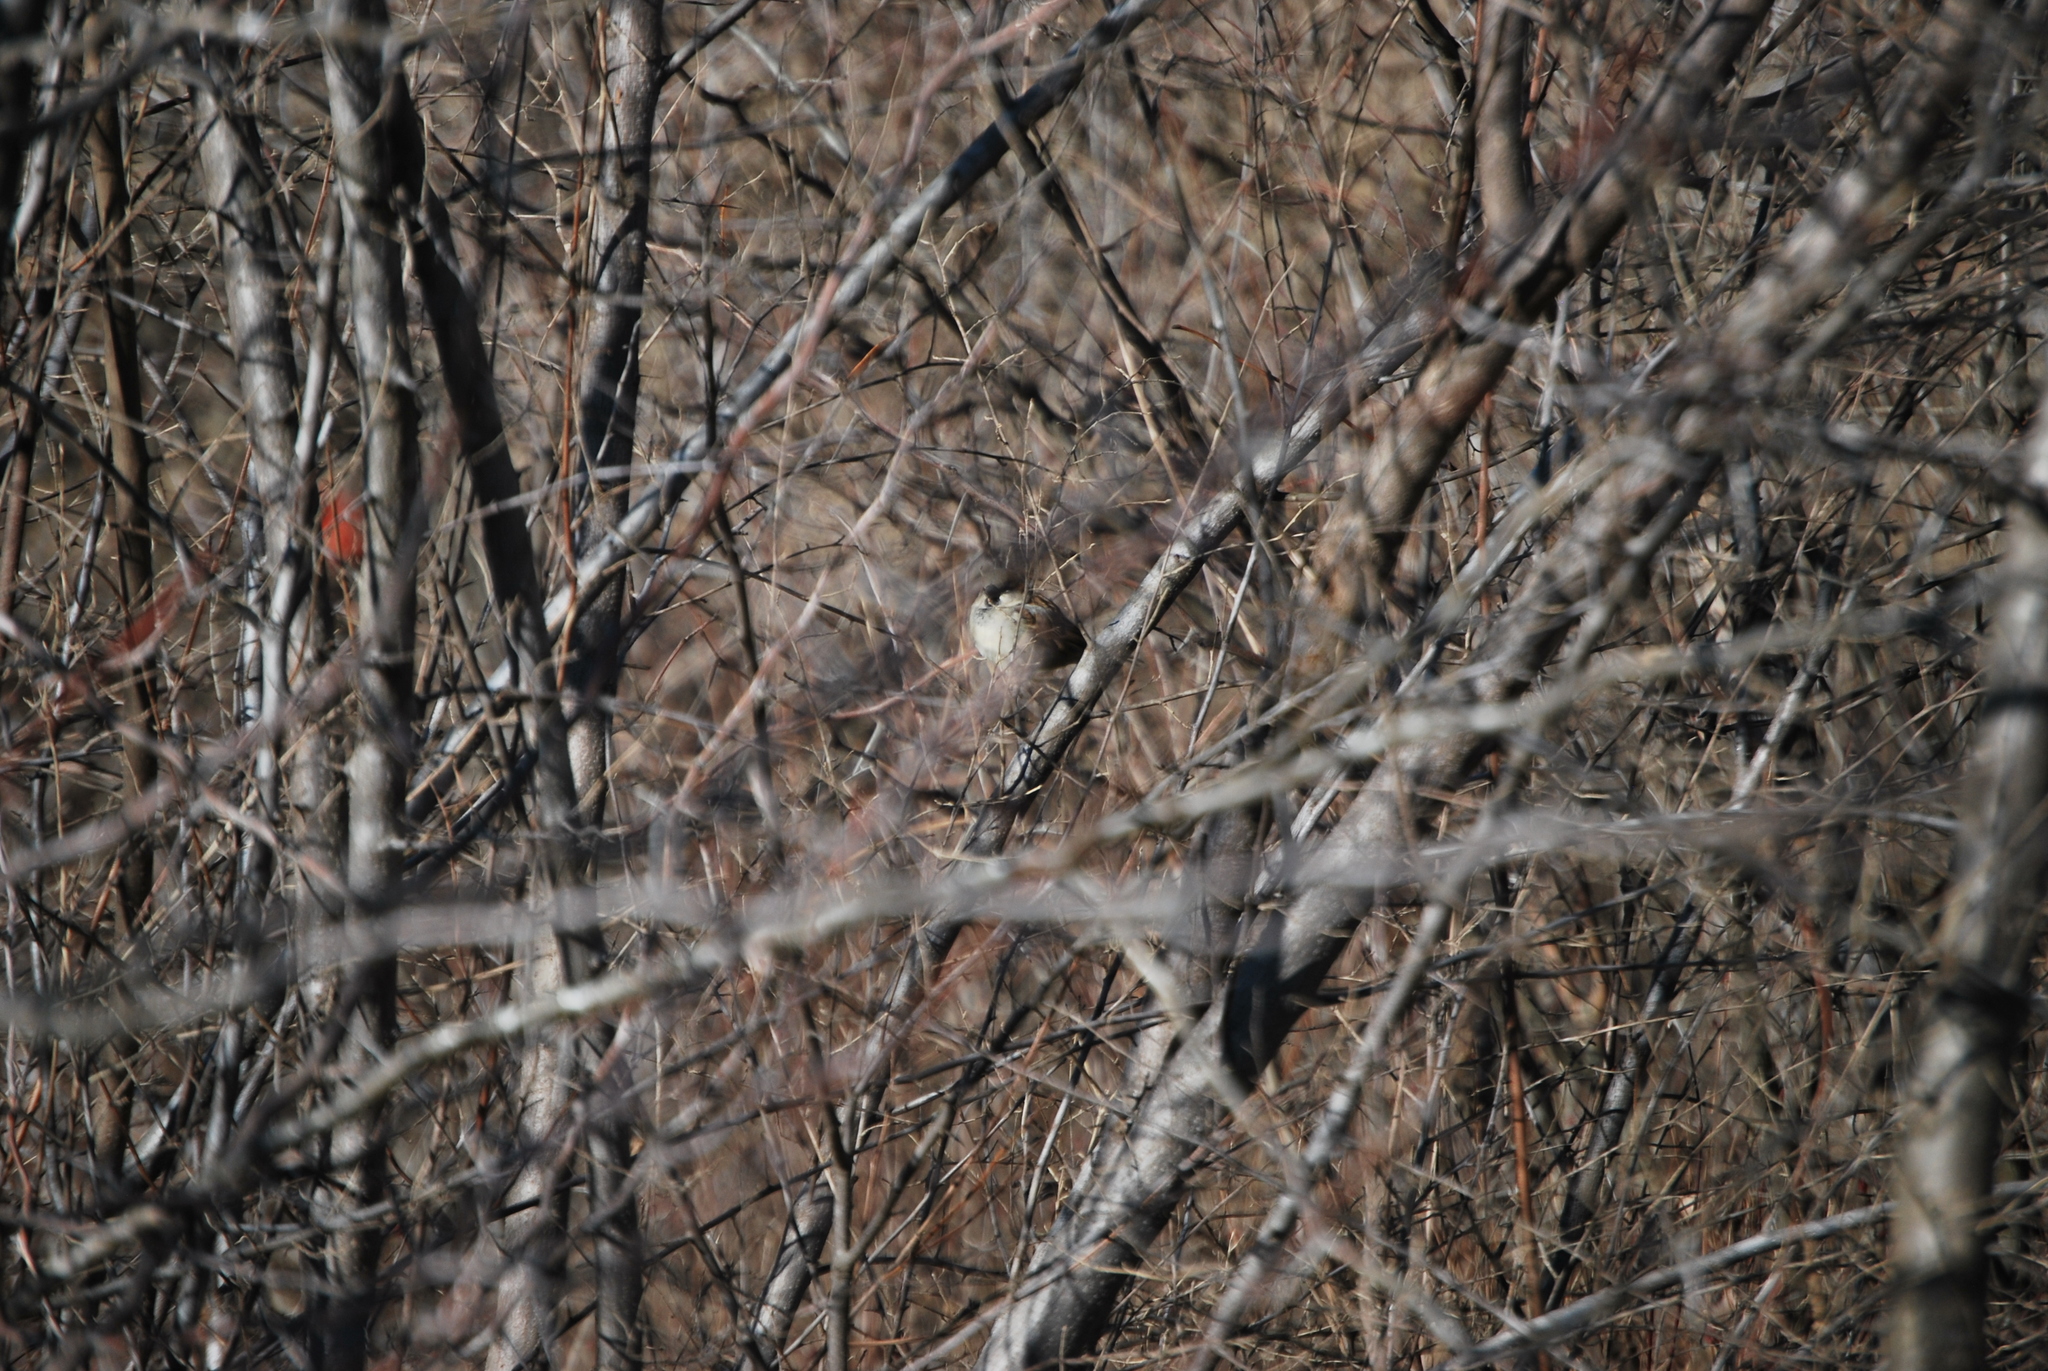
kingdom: Animalia
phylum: Chordata
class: Aves
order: Passeriformes
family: Passeridae
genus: Passer
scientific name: Passer domesticus
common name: House sparrow
